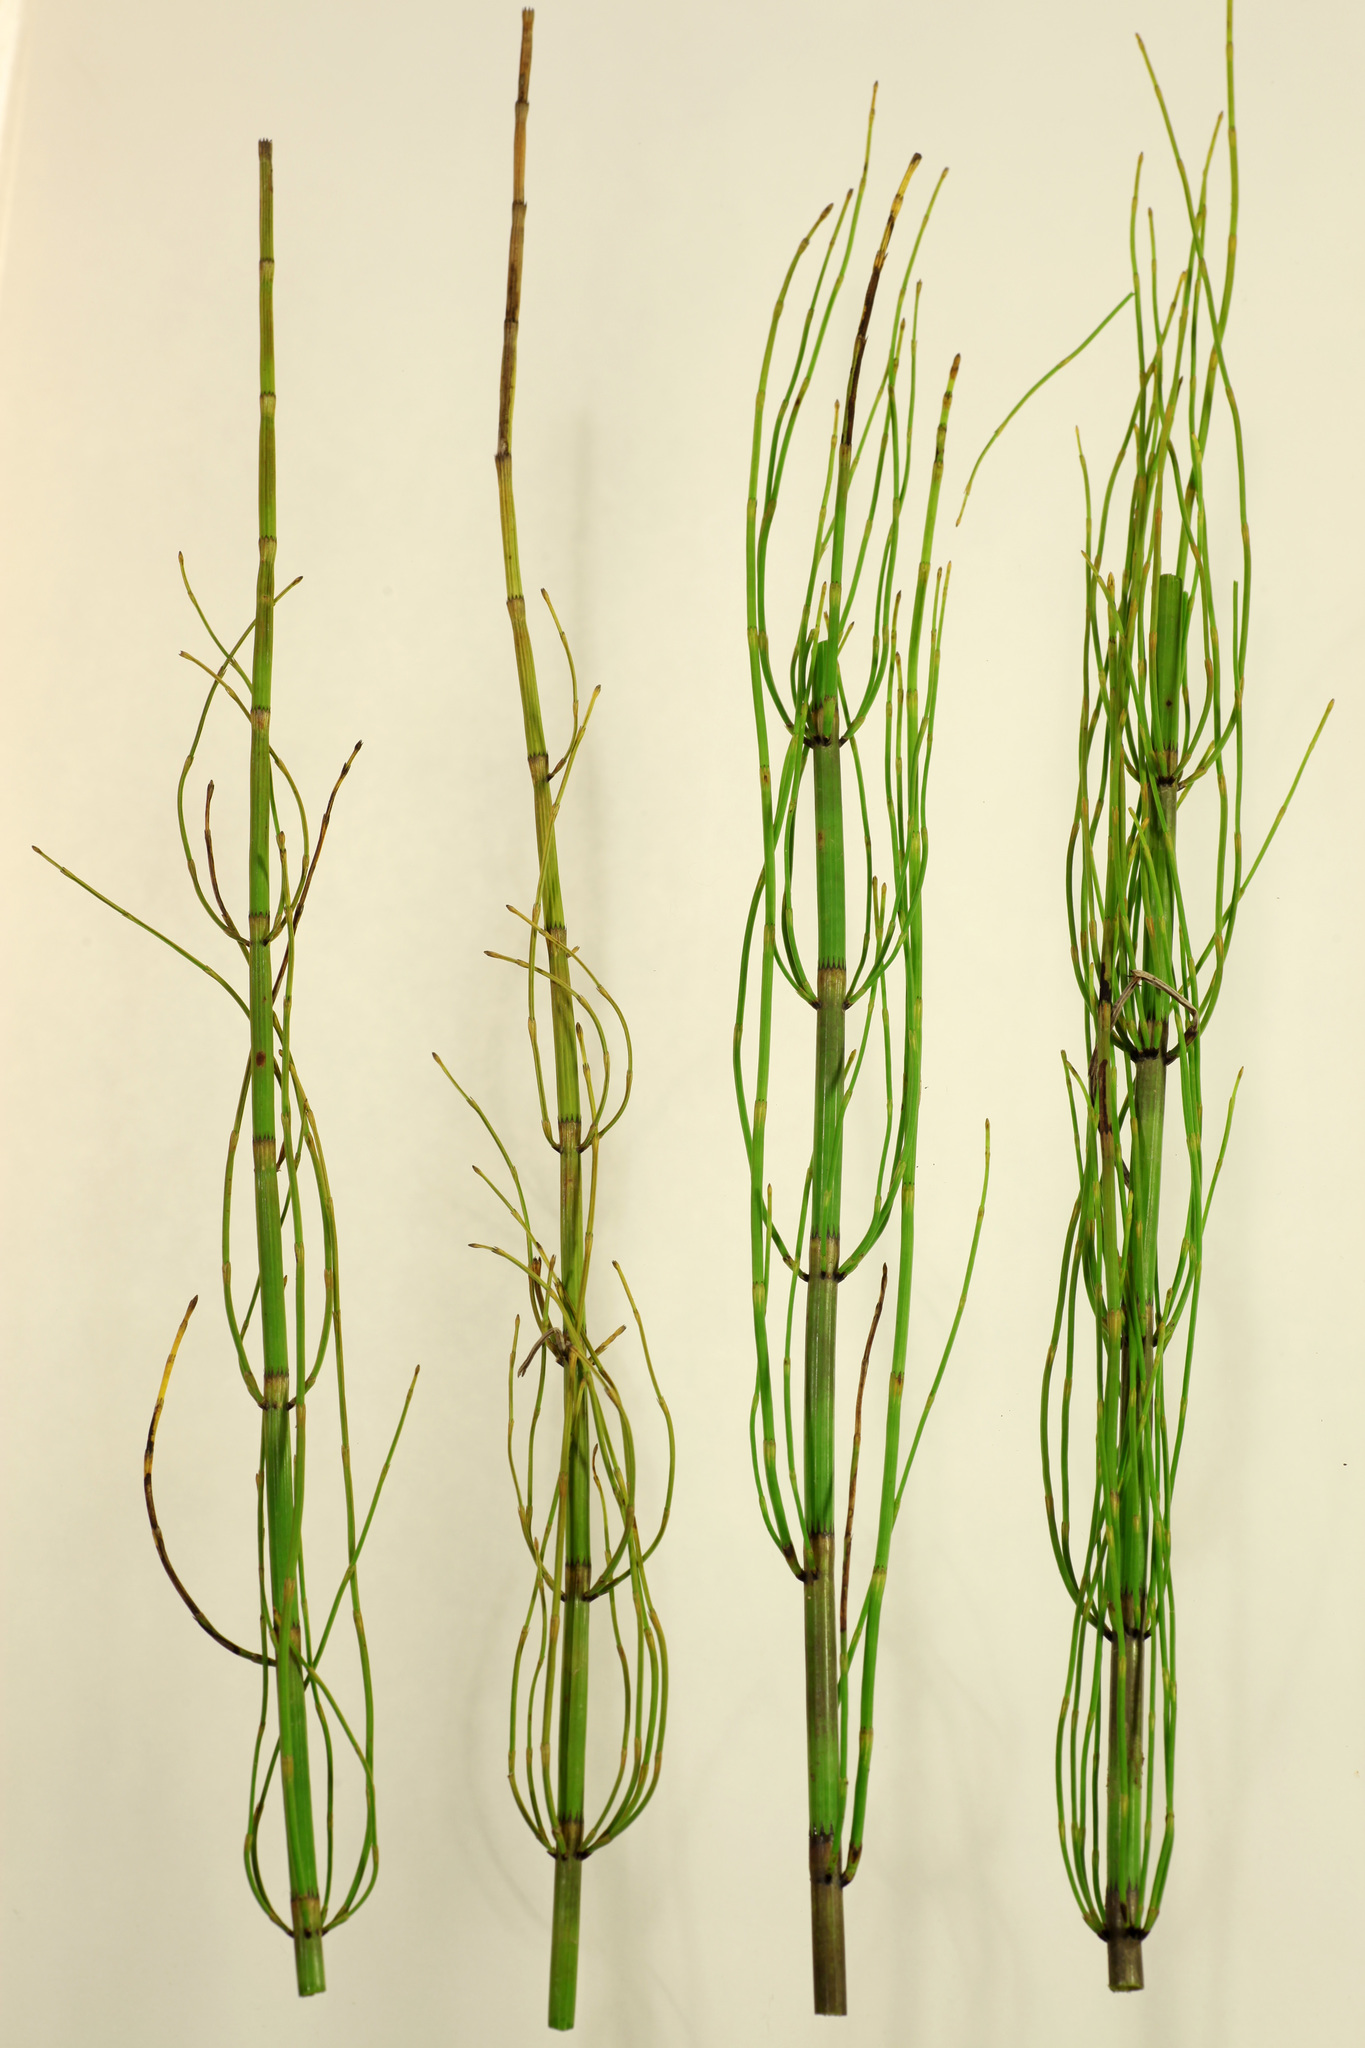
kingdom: Plantae
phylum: Tracheophyta
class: Polypodiopsida
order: Equisetales
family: Equisetaceae
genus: Equisetum
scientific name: Equisetum fluviatile
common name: Water horsetail
